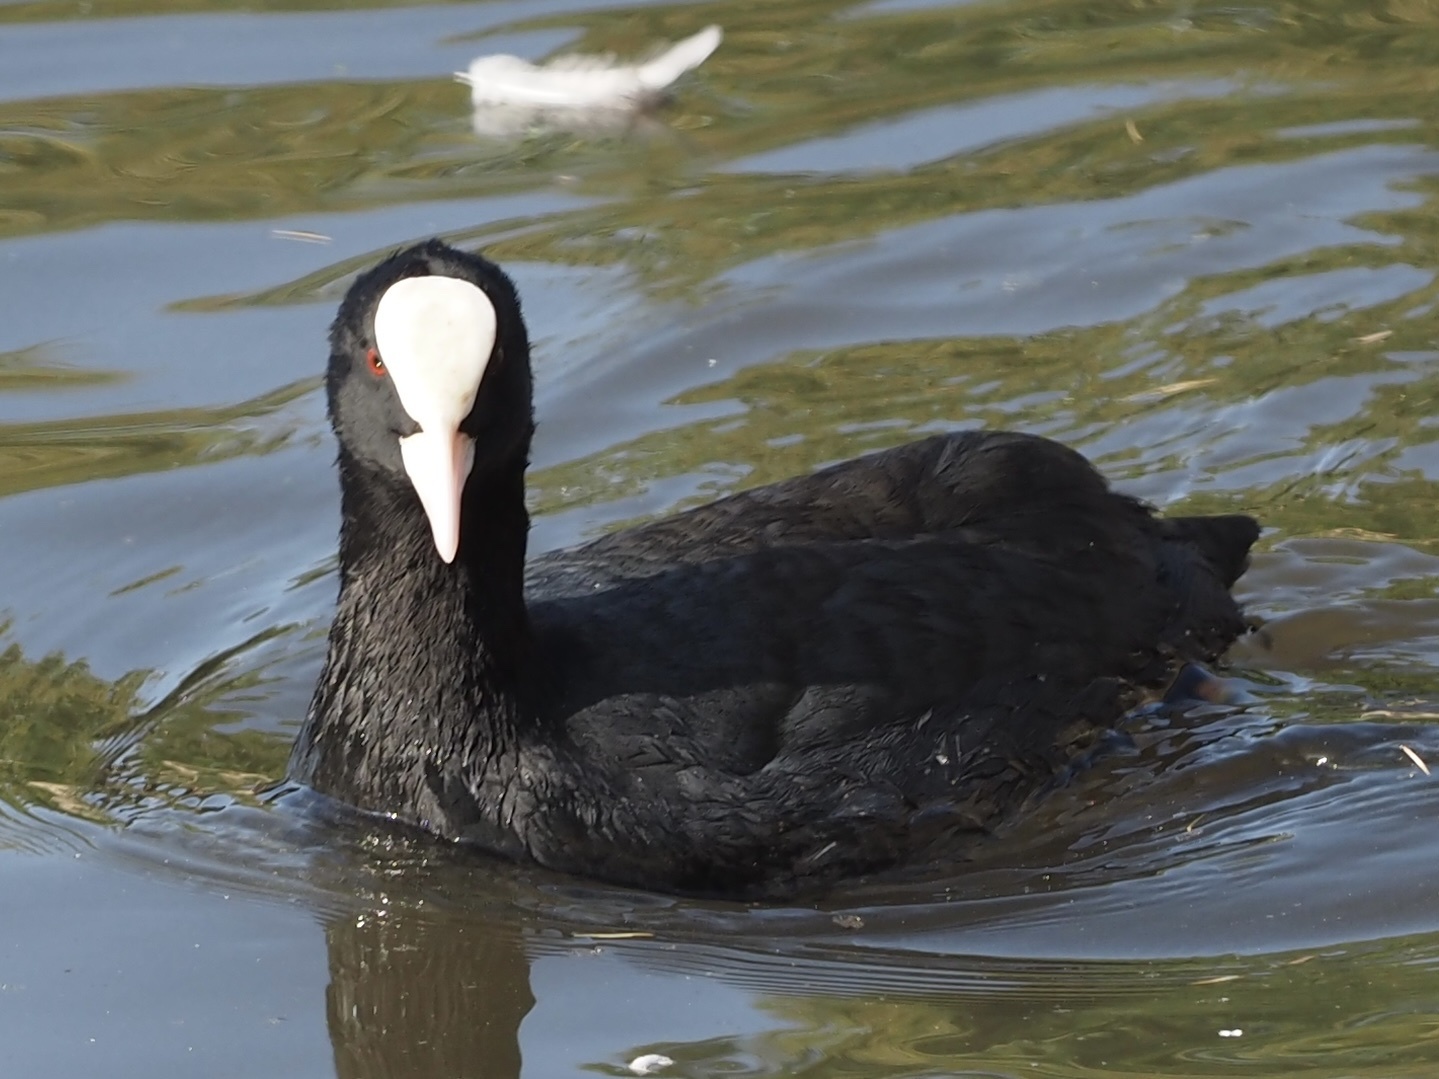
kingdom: Animalia
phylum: Chordata
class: Aves
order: Gruiformes
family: Rallidae
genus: Fulica
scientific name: Fulica atra
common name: Eurasian coot
